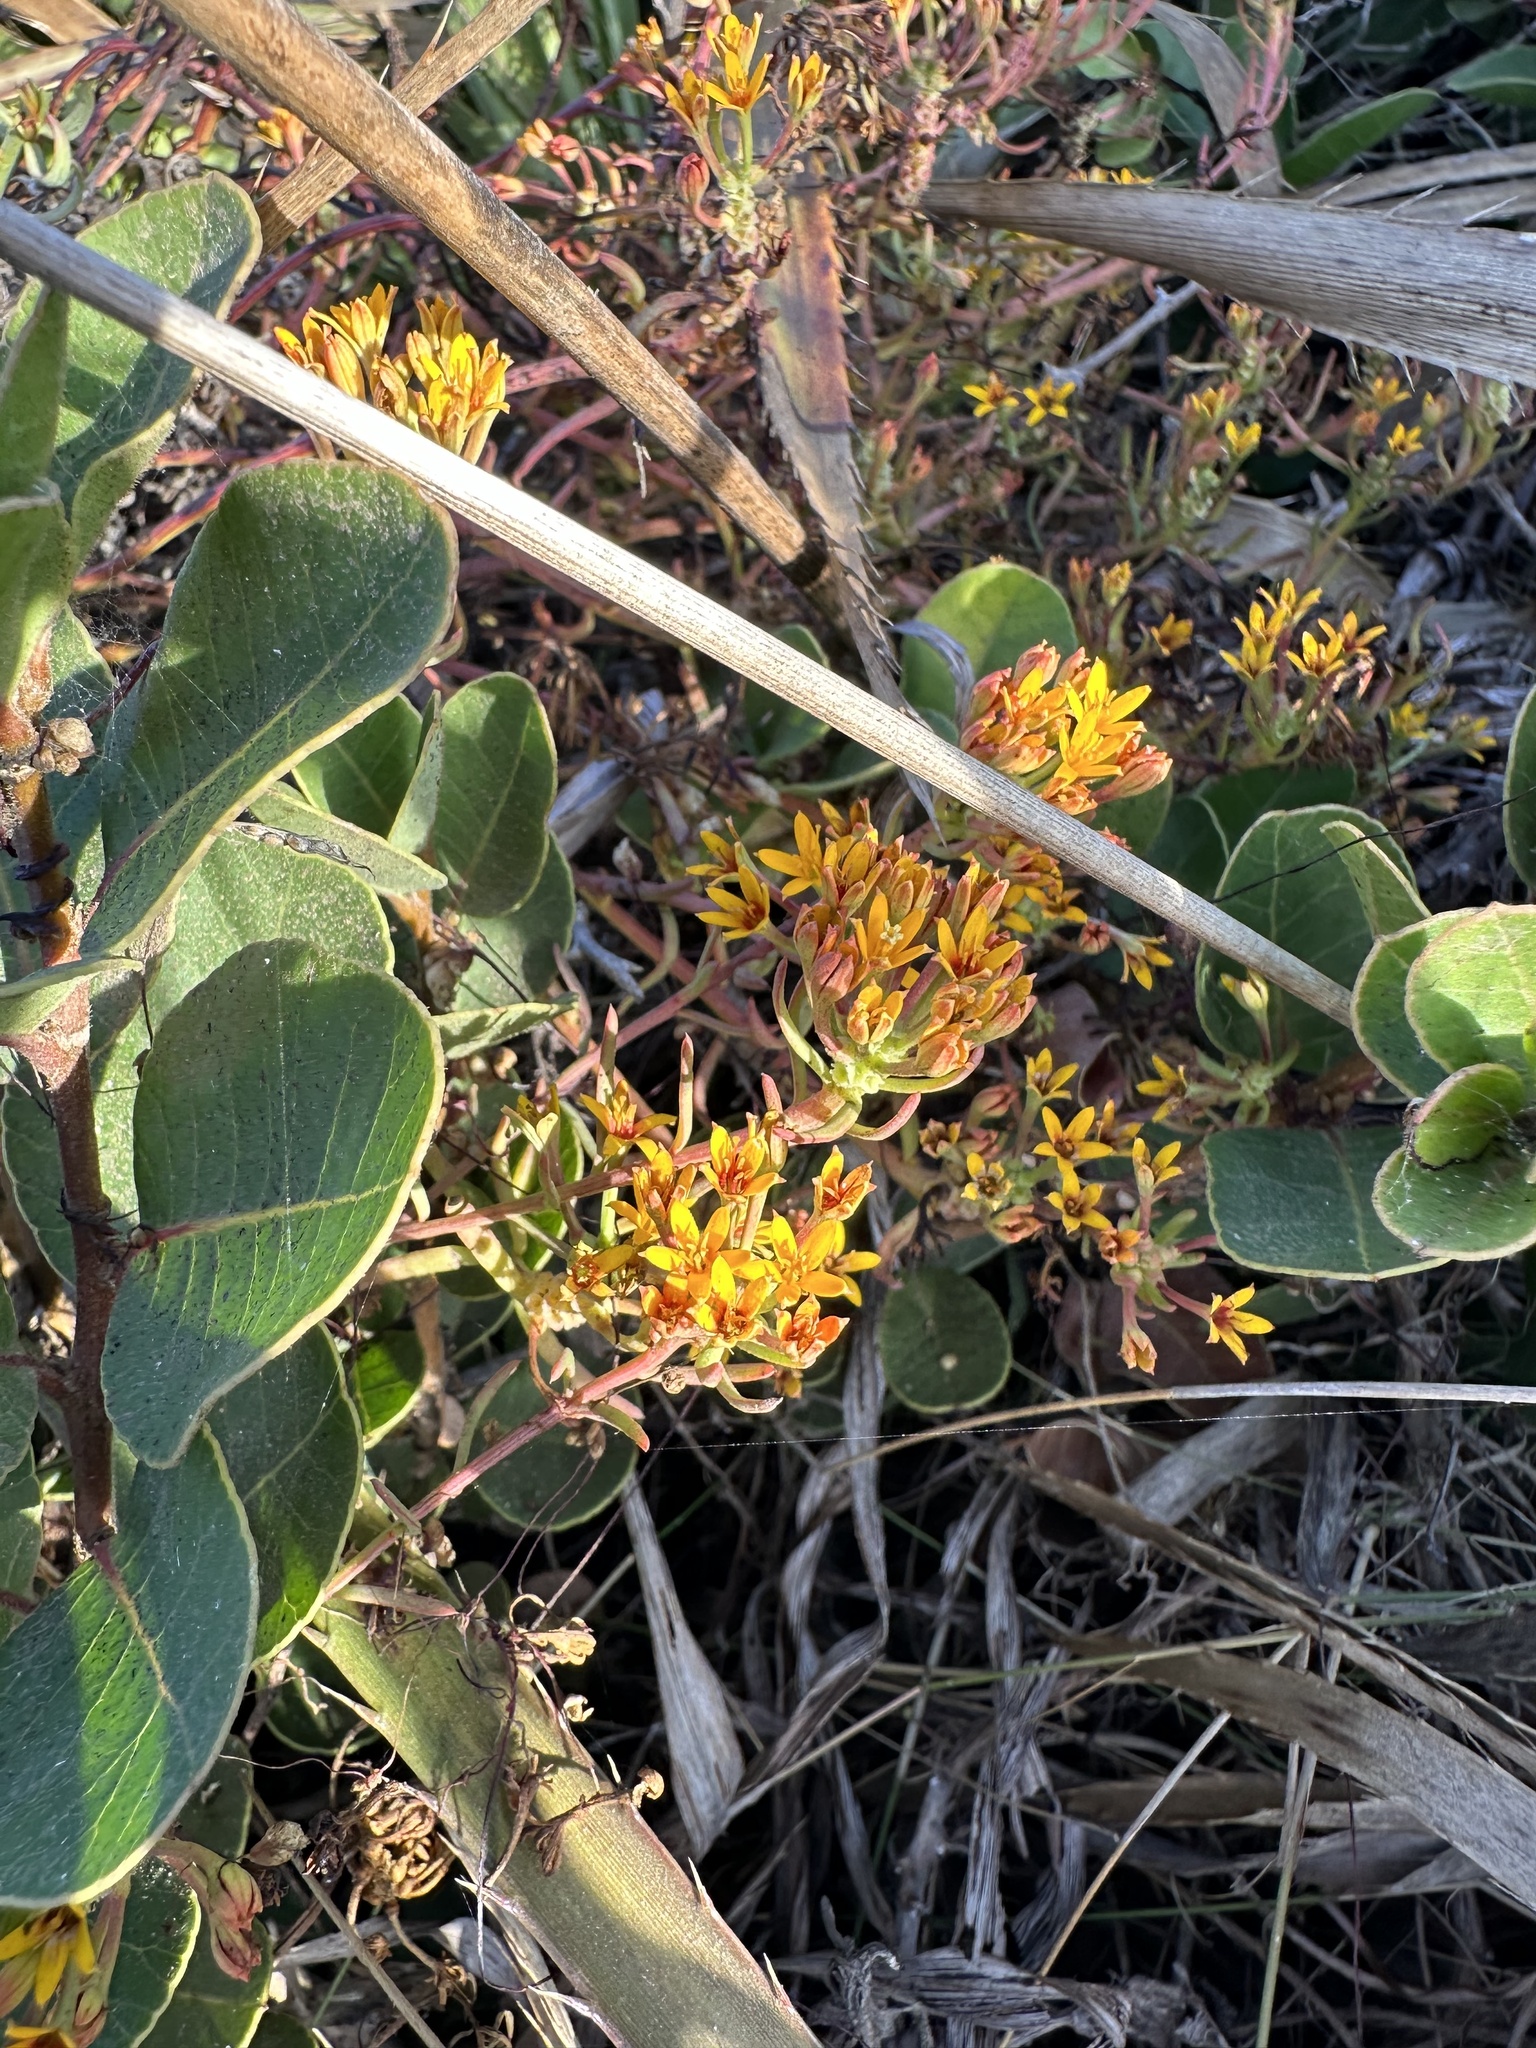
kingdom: Plantae
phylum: Tracheophyta
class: Magnoliopsida
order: Santalales
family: Schoepfiaceae
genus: Quinchamalium
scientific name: Quinchamalium chilense
